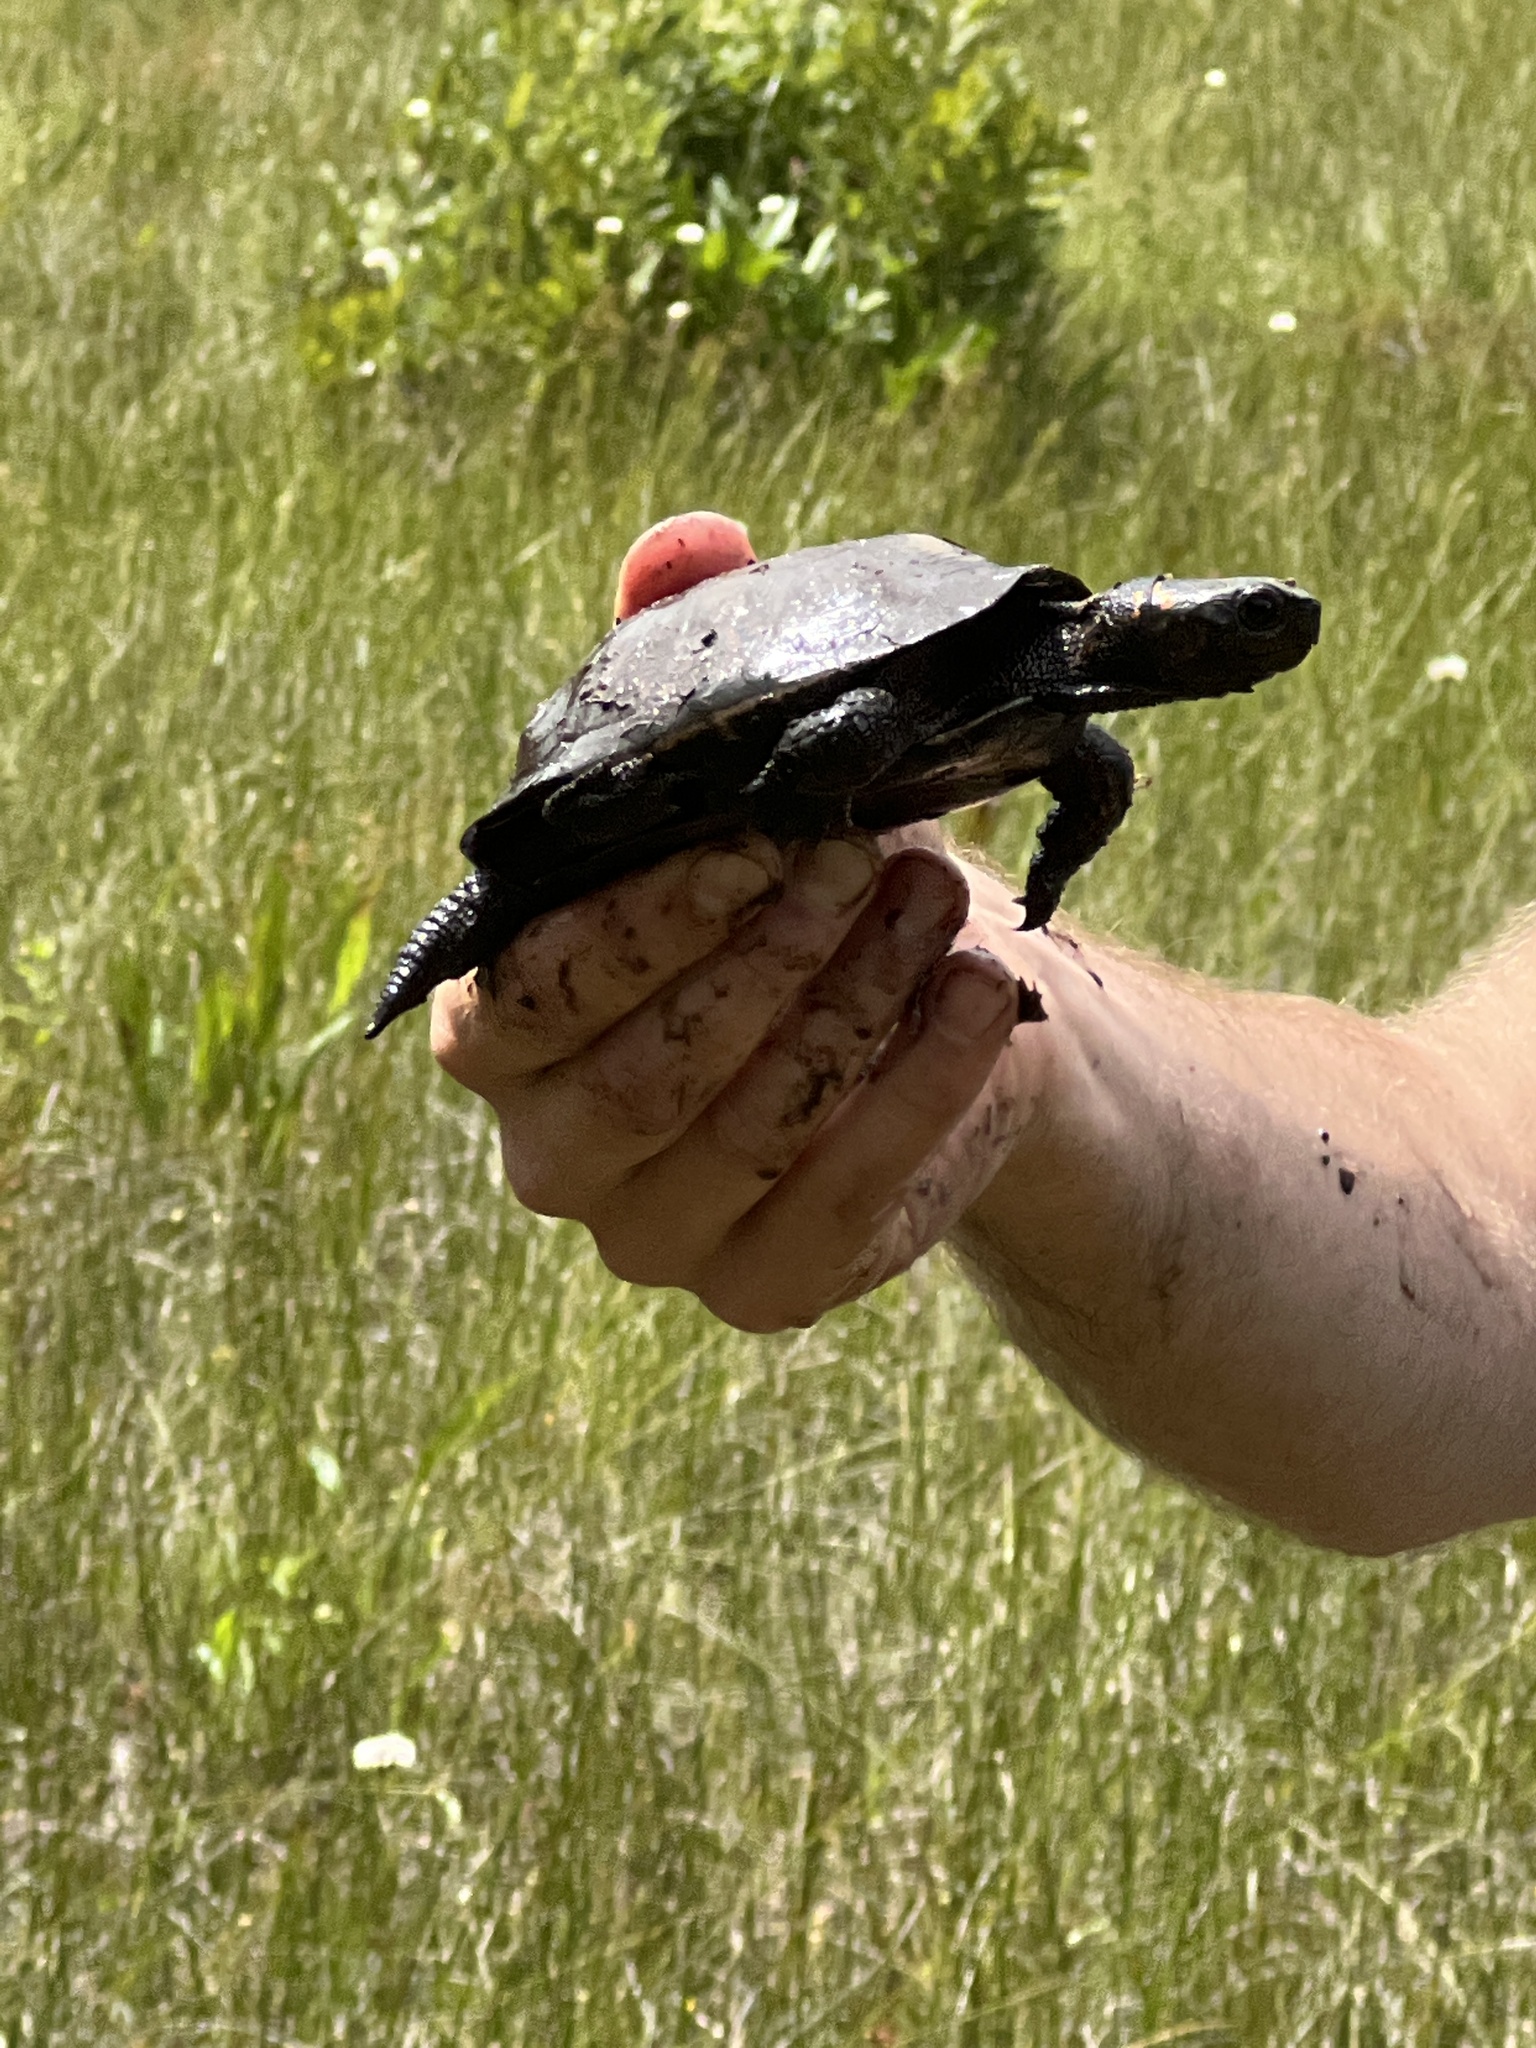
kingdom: Animalia
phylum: Chordata
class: Testudines
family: Emydidae
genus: Glyptemys
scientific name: Glyptemys muhlenbergii
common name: Bog turtle
